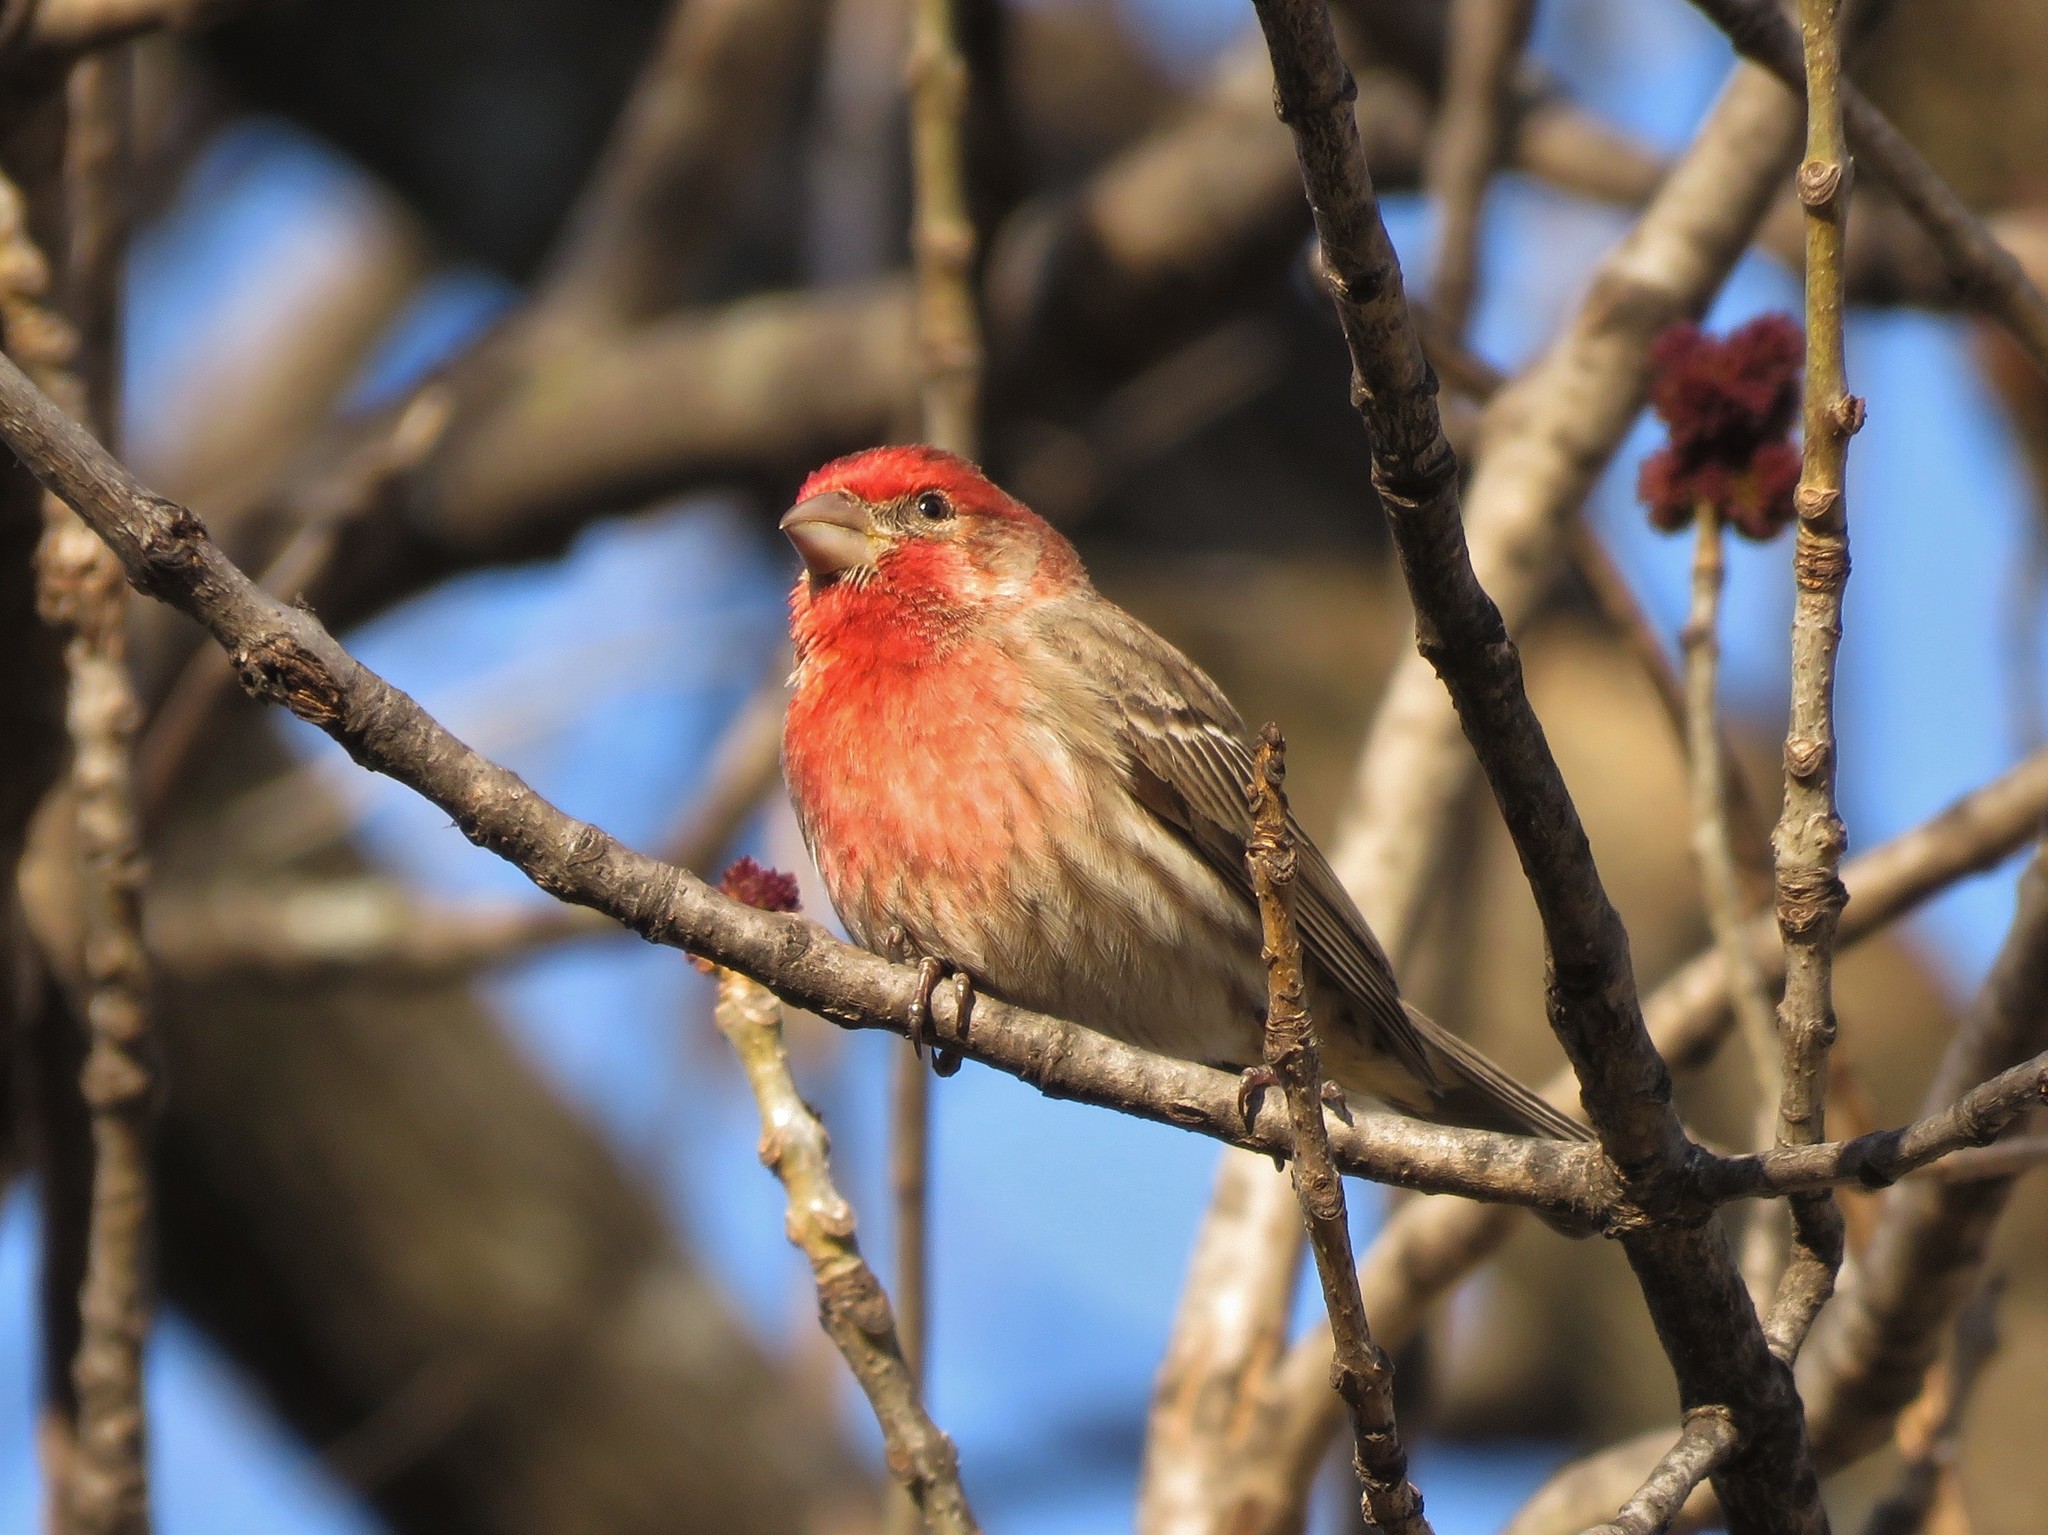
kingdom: Animalia
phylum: Chordata
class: Aves
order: Passeriformes
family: Fringillidae
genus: Haemorhous
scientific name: Haemorhous mexicanus
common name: House finch
